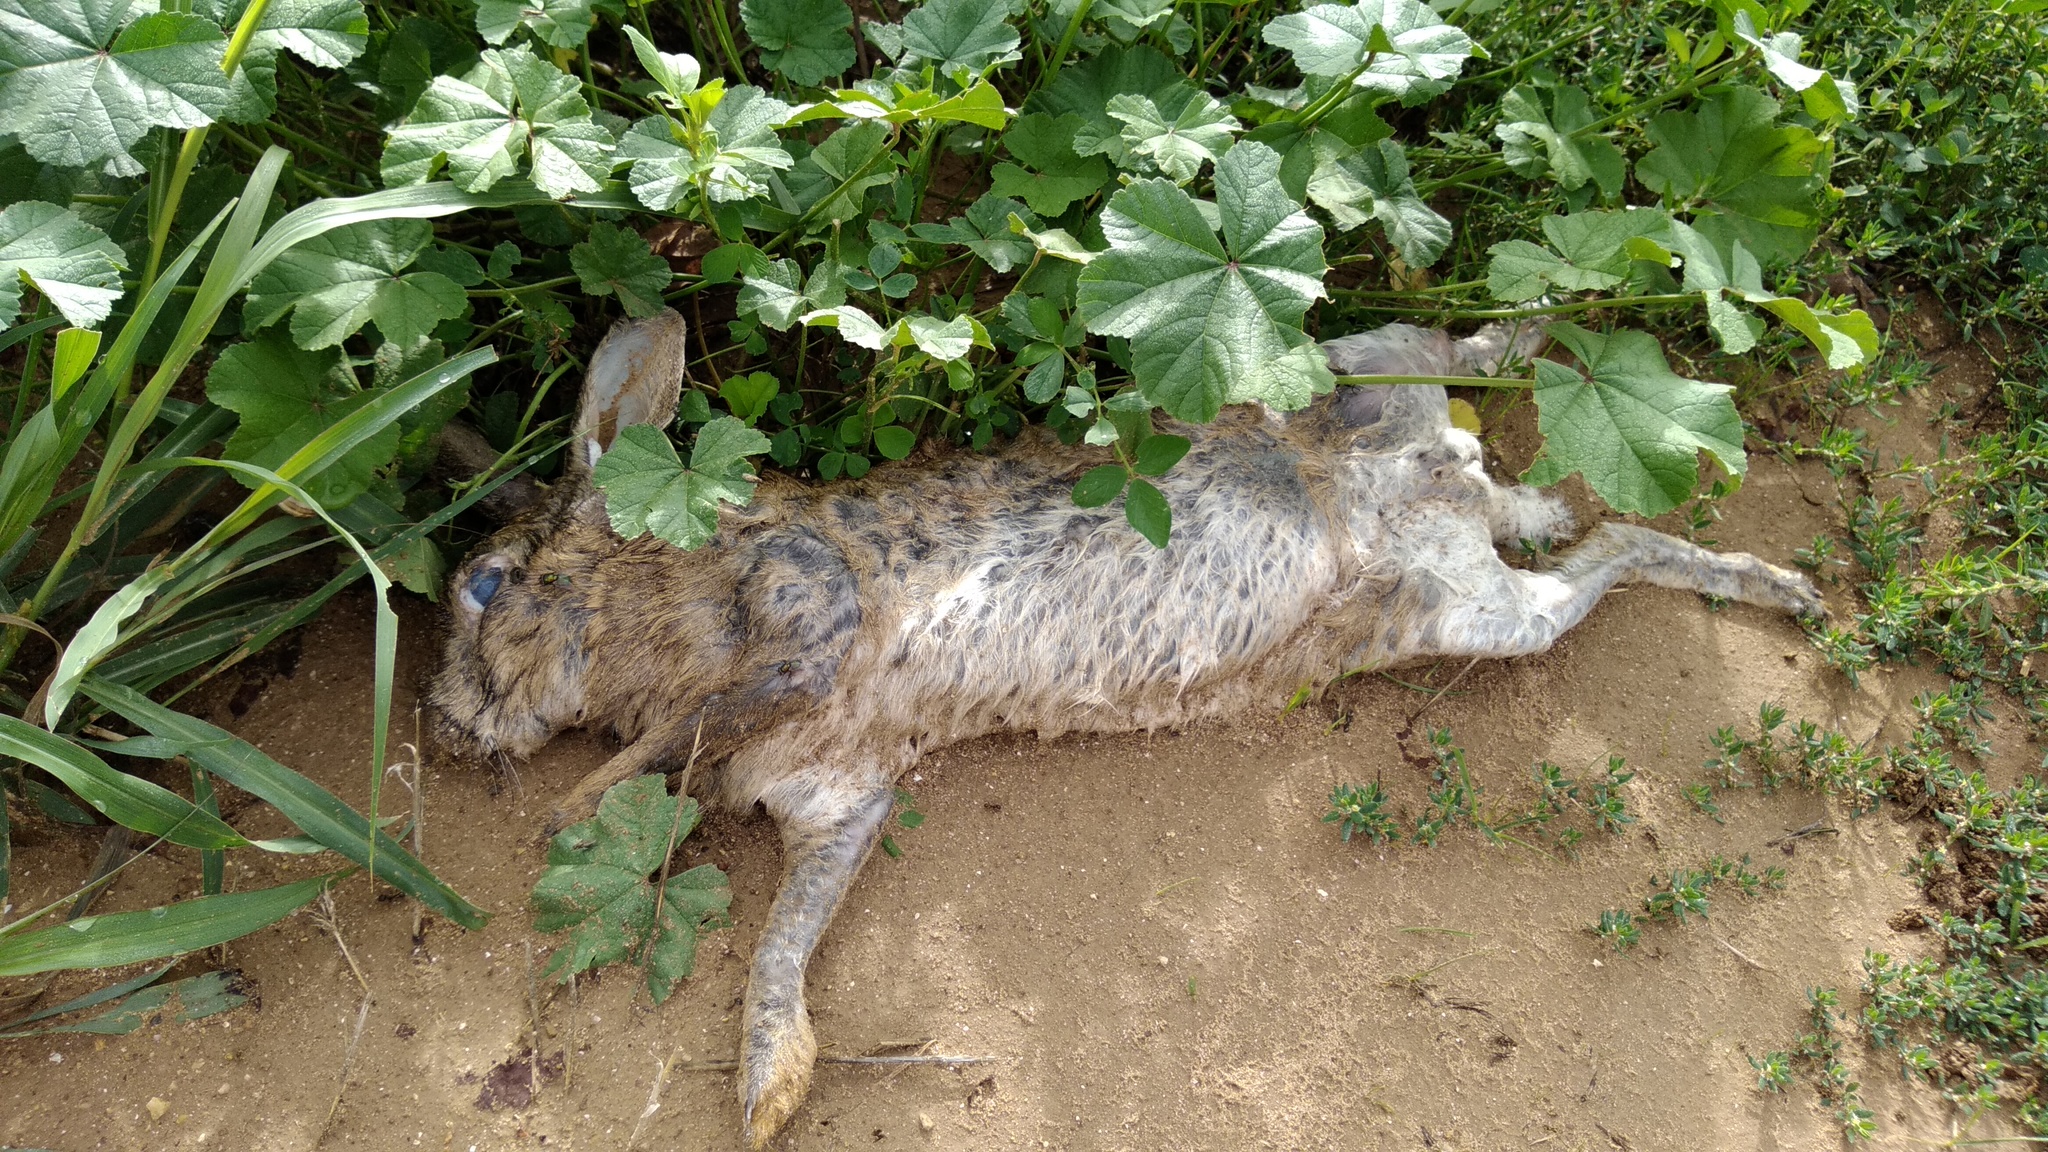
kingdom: Animalia
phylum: Chordata
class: Mammalia
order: Lagomorpha
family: Leporidae
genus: Oryctolagus
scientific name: Oryctolagus cuniculus
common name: European rabbit
